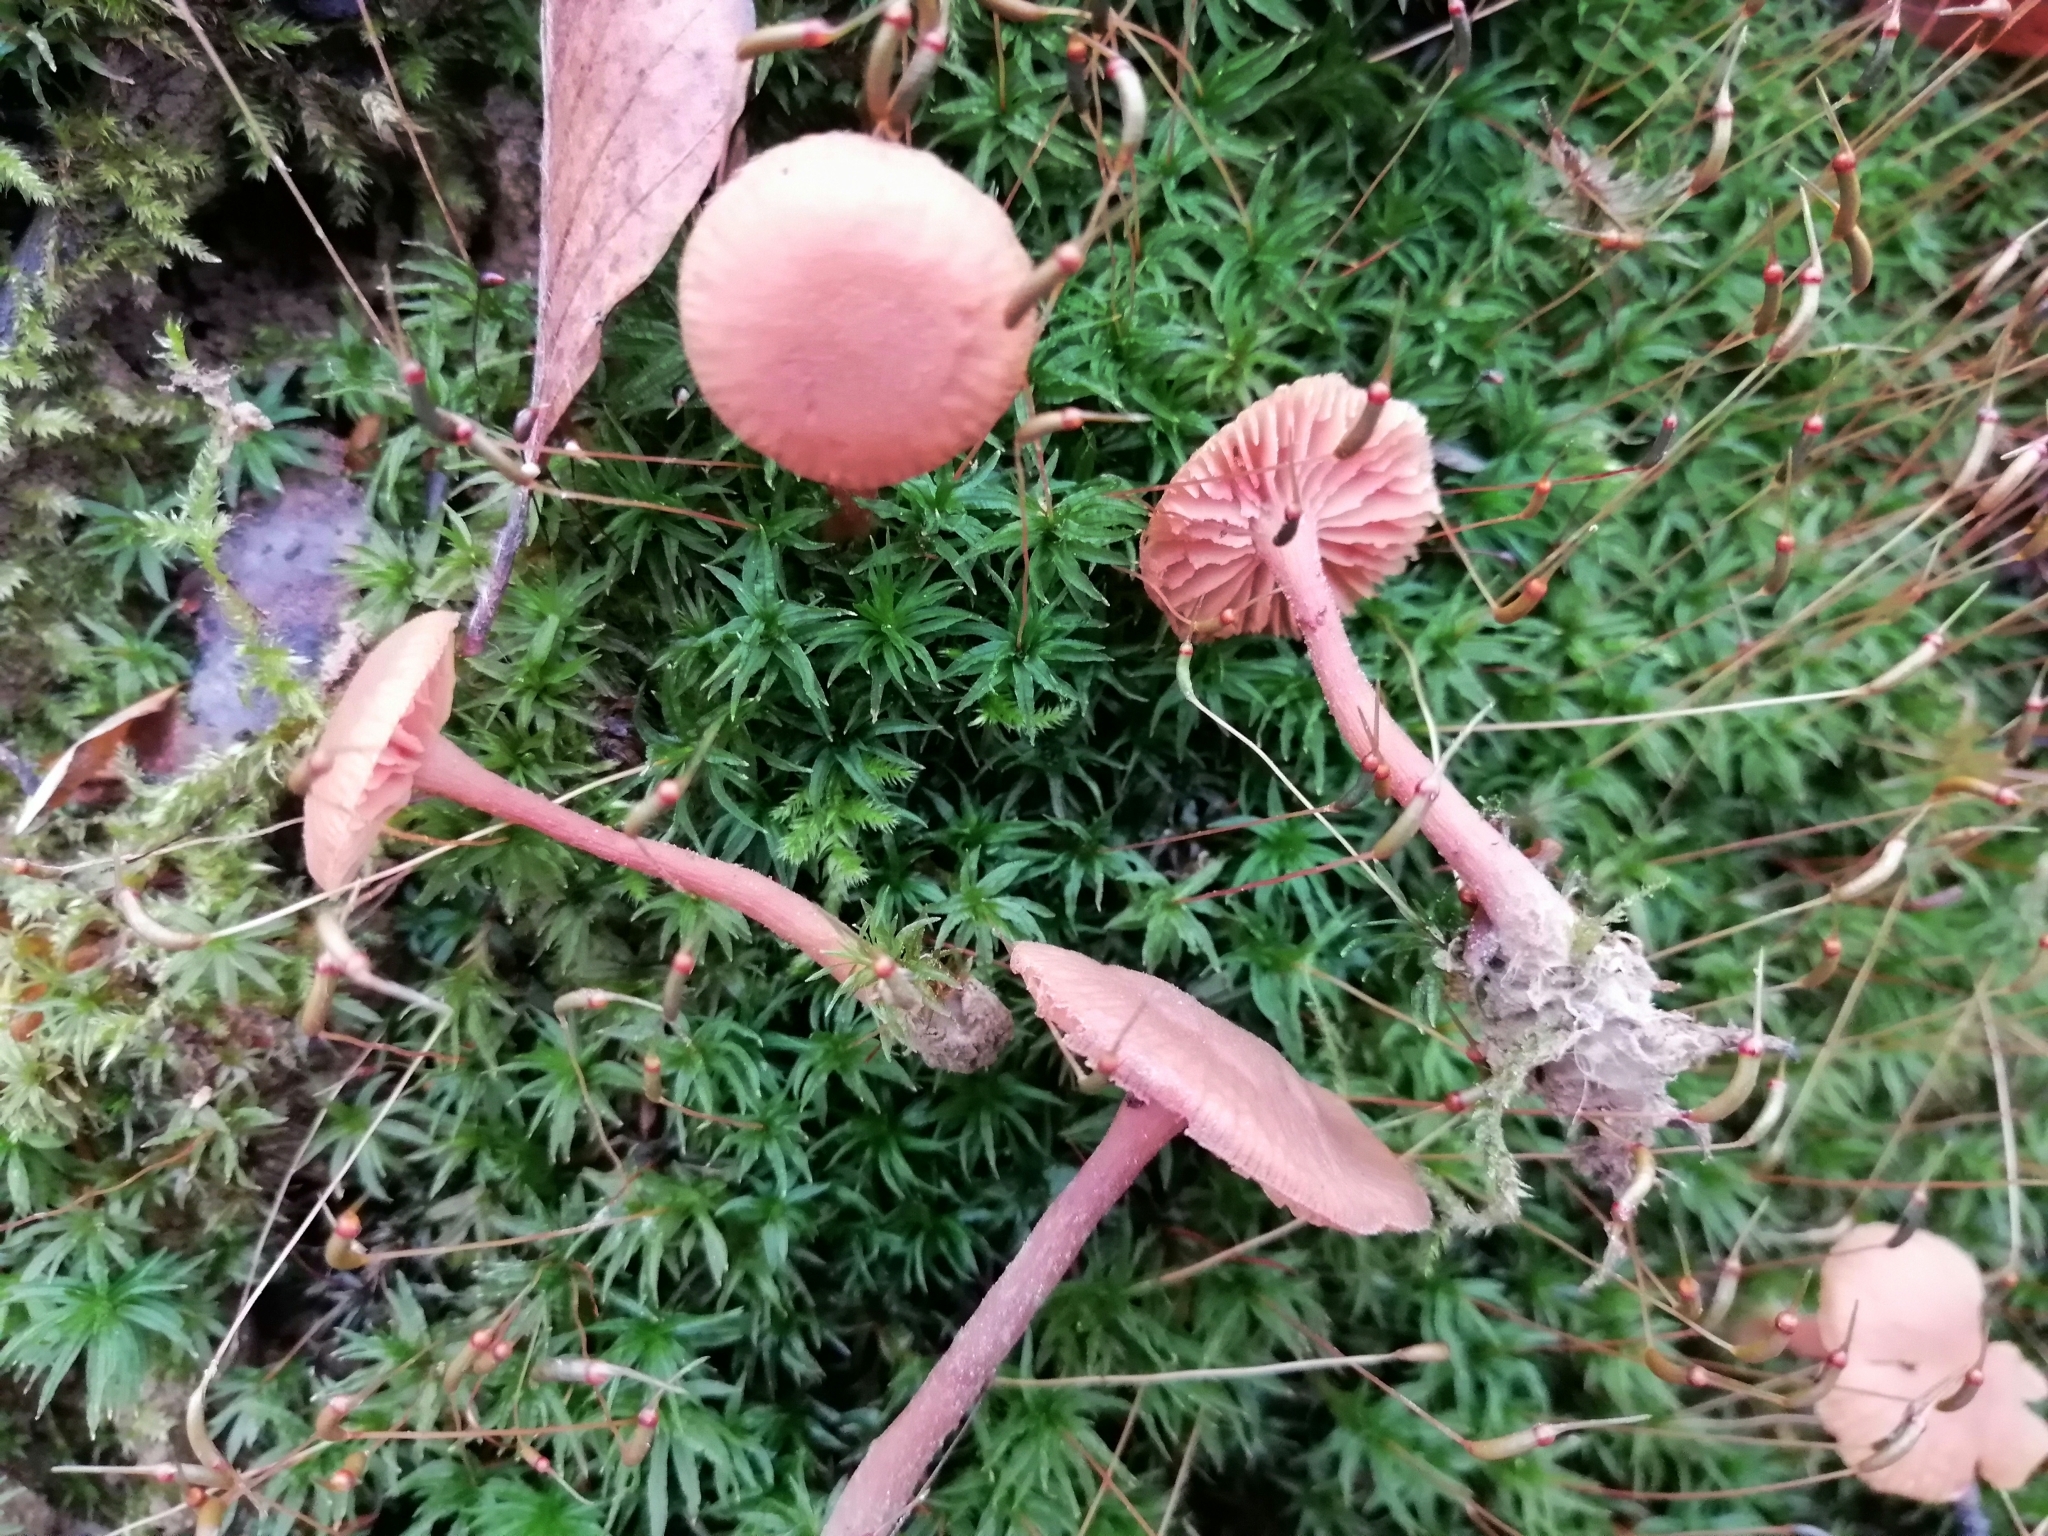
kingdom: Fungi
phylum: Basidiomycota
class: Agaricomycetes
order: Agaricales
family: Hydnangiaceae
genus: Laccaria
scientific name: Laccaria laccata
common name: Deceiver
